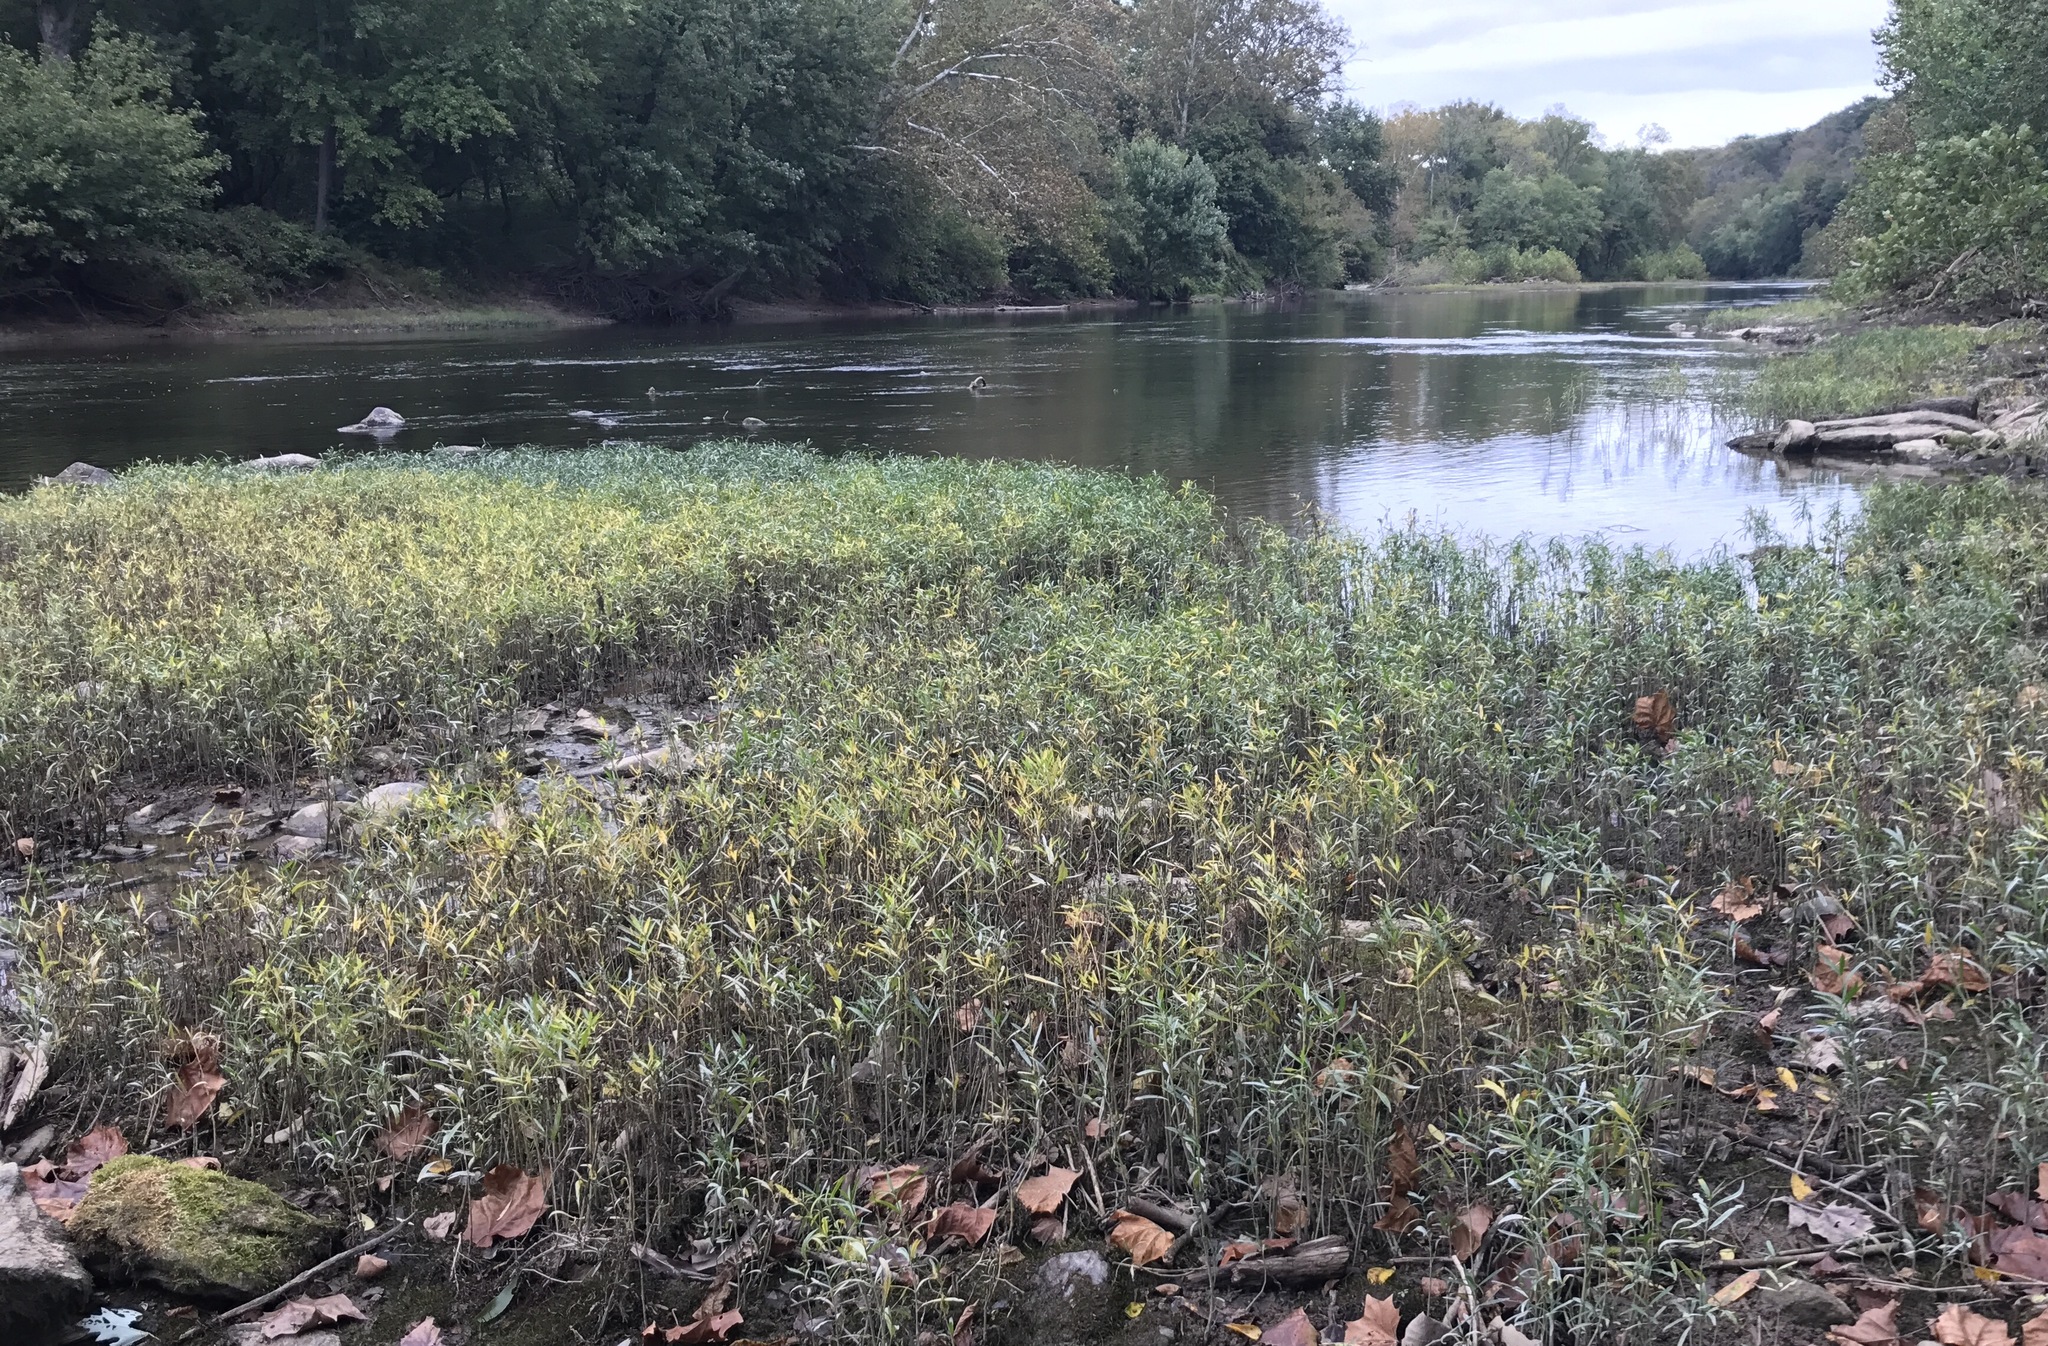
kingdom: Plantae
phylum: Tracheophyta
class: Magnoliopsida
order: Lamiales
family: Acanthaceae
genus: Dianthera
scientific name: Dianthera americana
